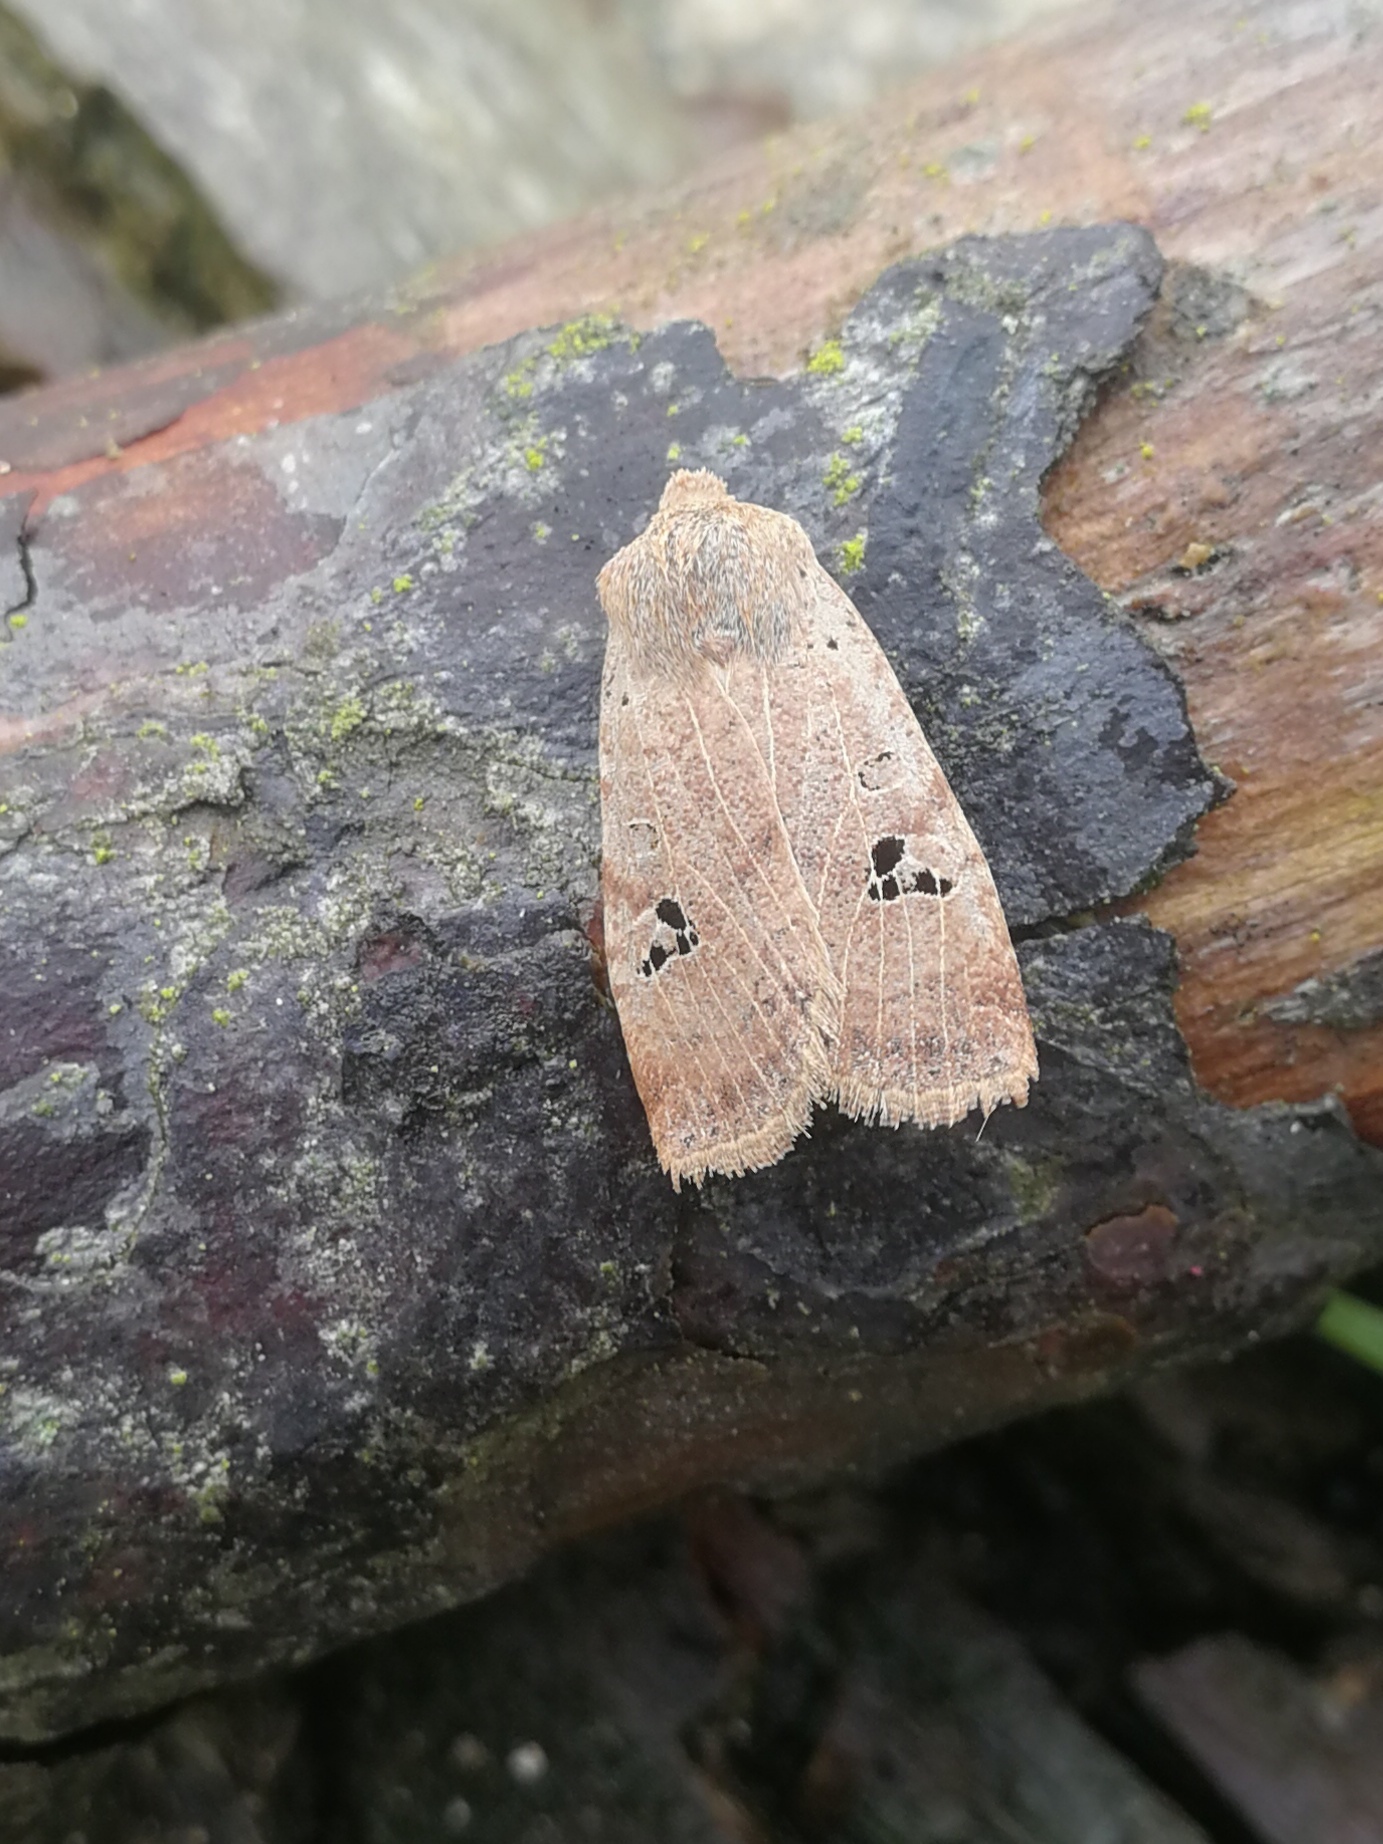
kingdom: Animalia
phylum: Arthropoda
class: Insecta
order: Lepidoptera
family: Noctuidae
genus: Conistra
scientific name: Conistra rubiginosa
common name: Black-spotted chestnut
